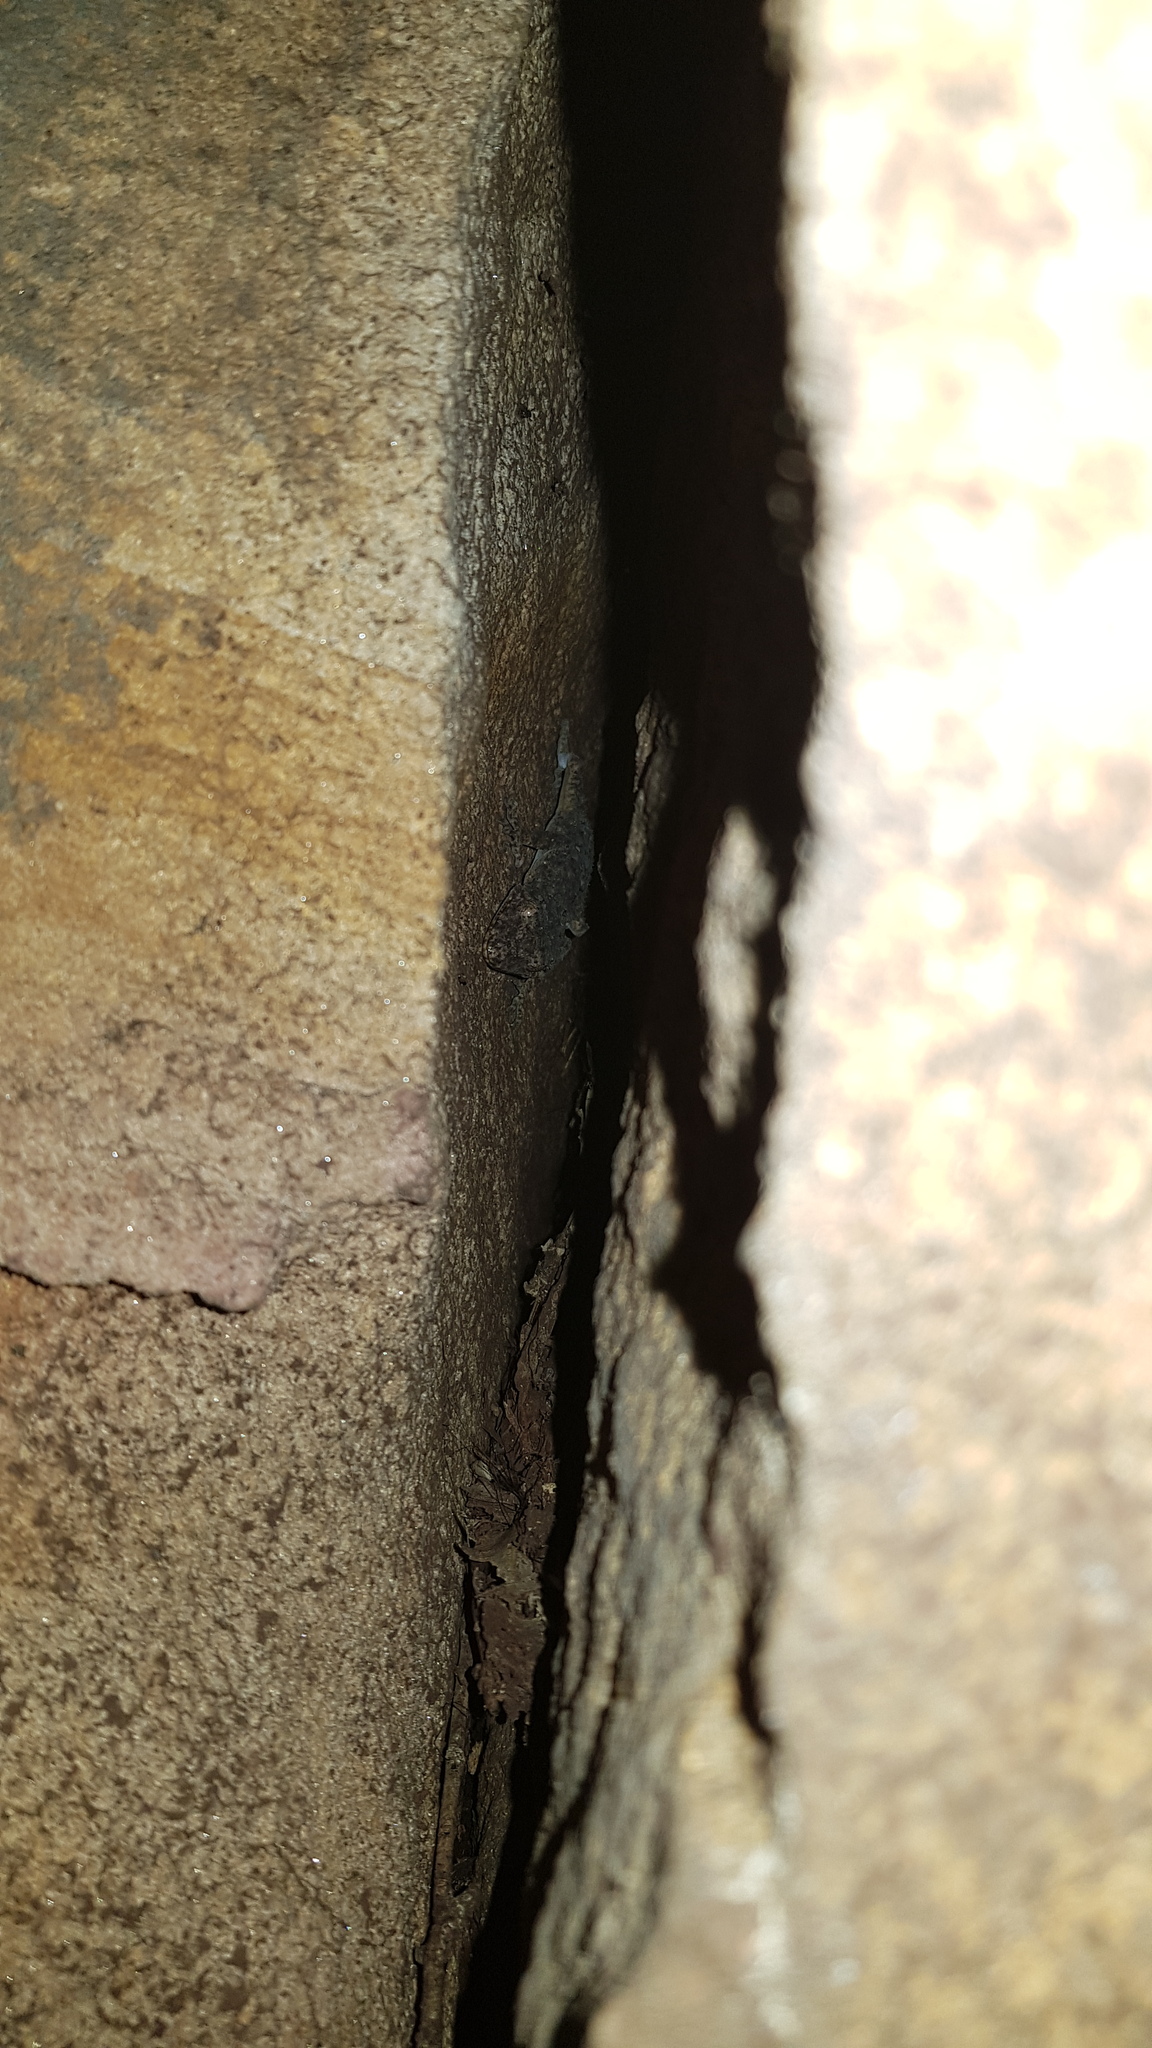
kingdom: Animalia
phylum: Chordata
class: Squamata
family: Carphodactylidae
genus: Phyllurus
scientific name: Phyllurus platurus
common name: Broad-tailed gecko
